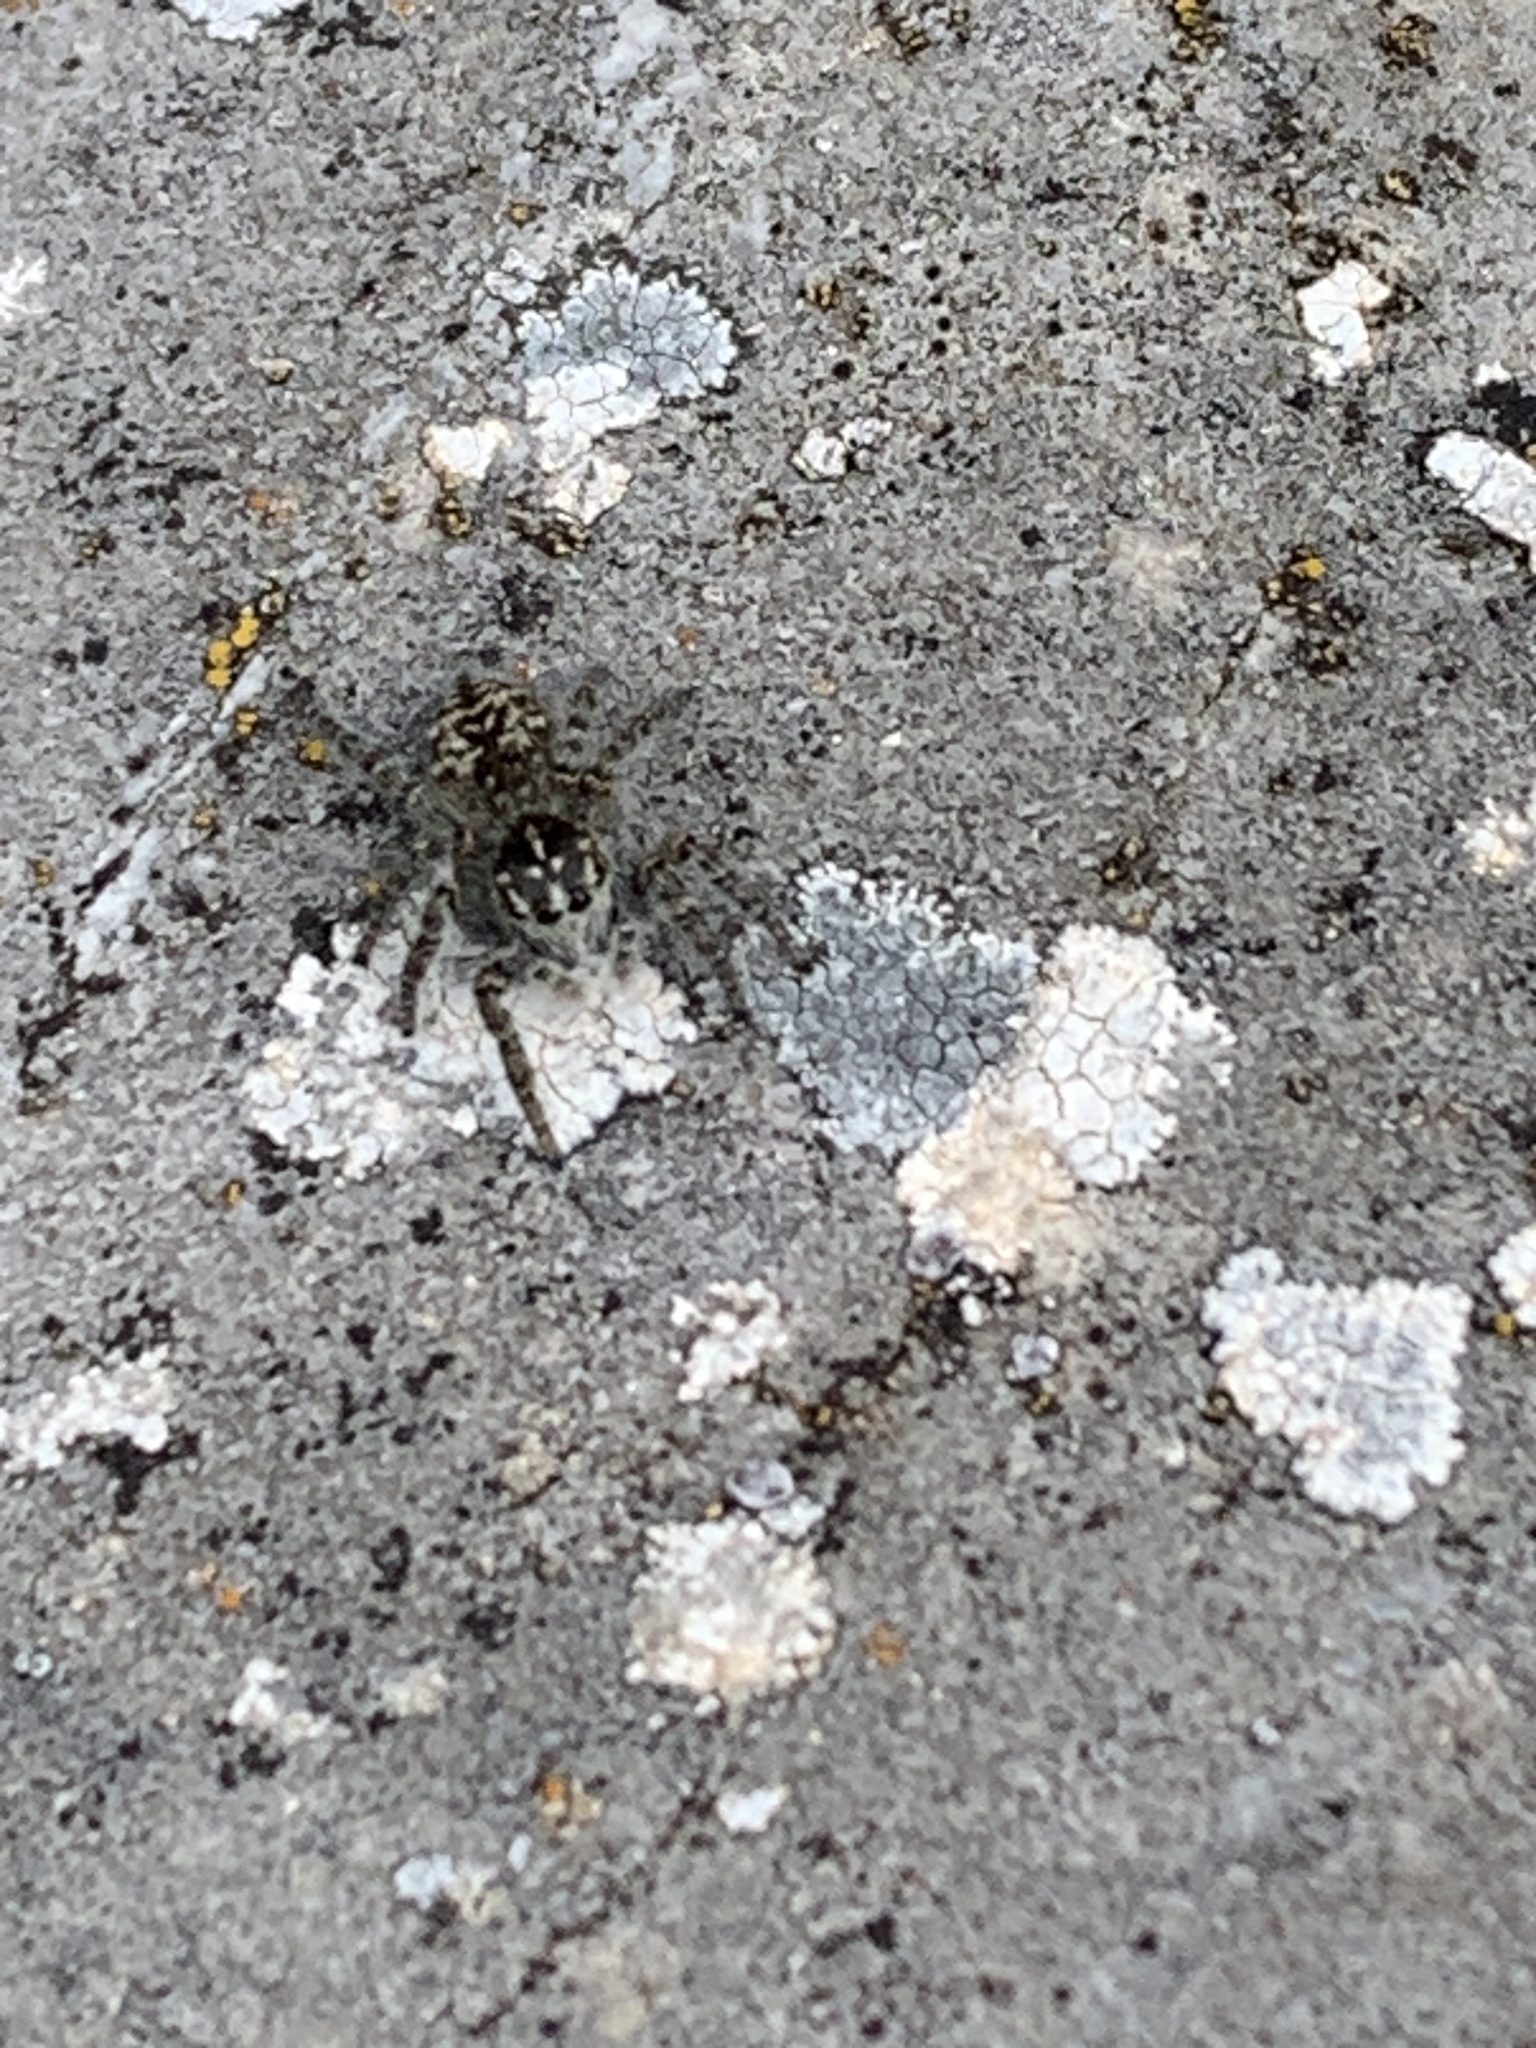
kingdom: Animalia
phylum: Arthropoda
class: Arachnida
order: Araneae
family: Salticidae
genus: Philaeus
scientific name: Philaeus chrysops
